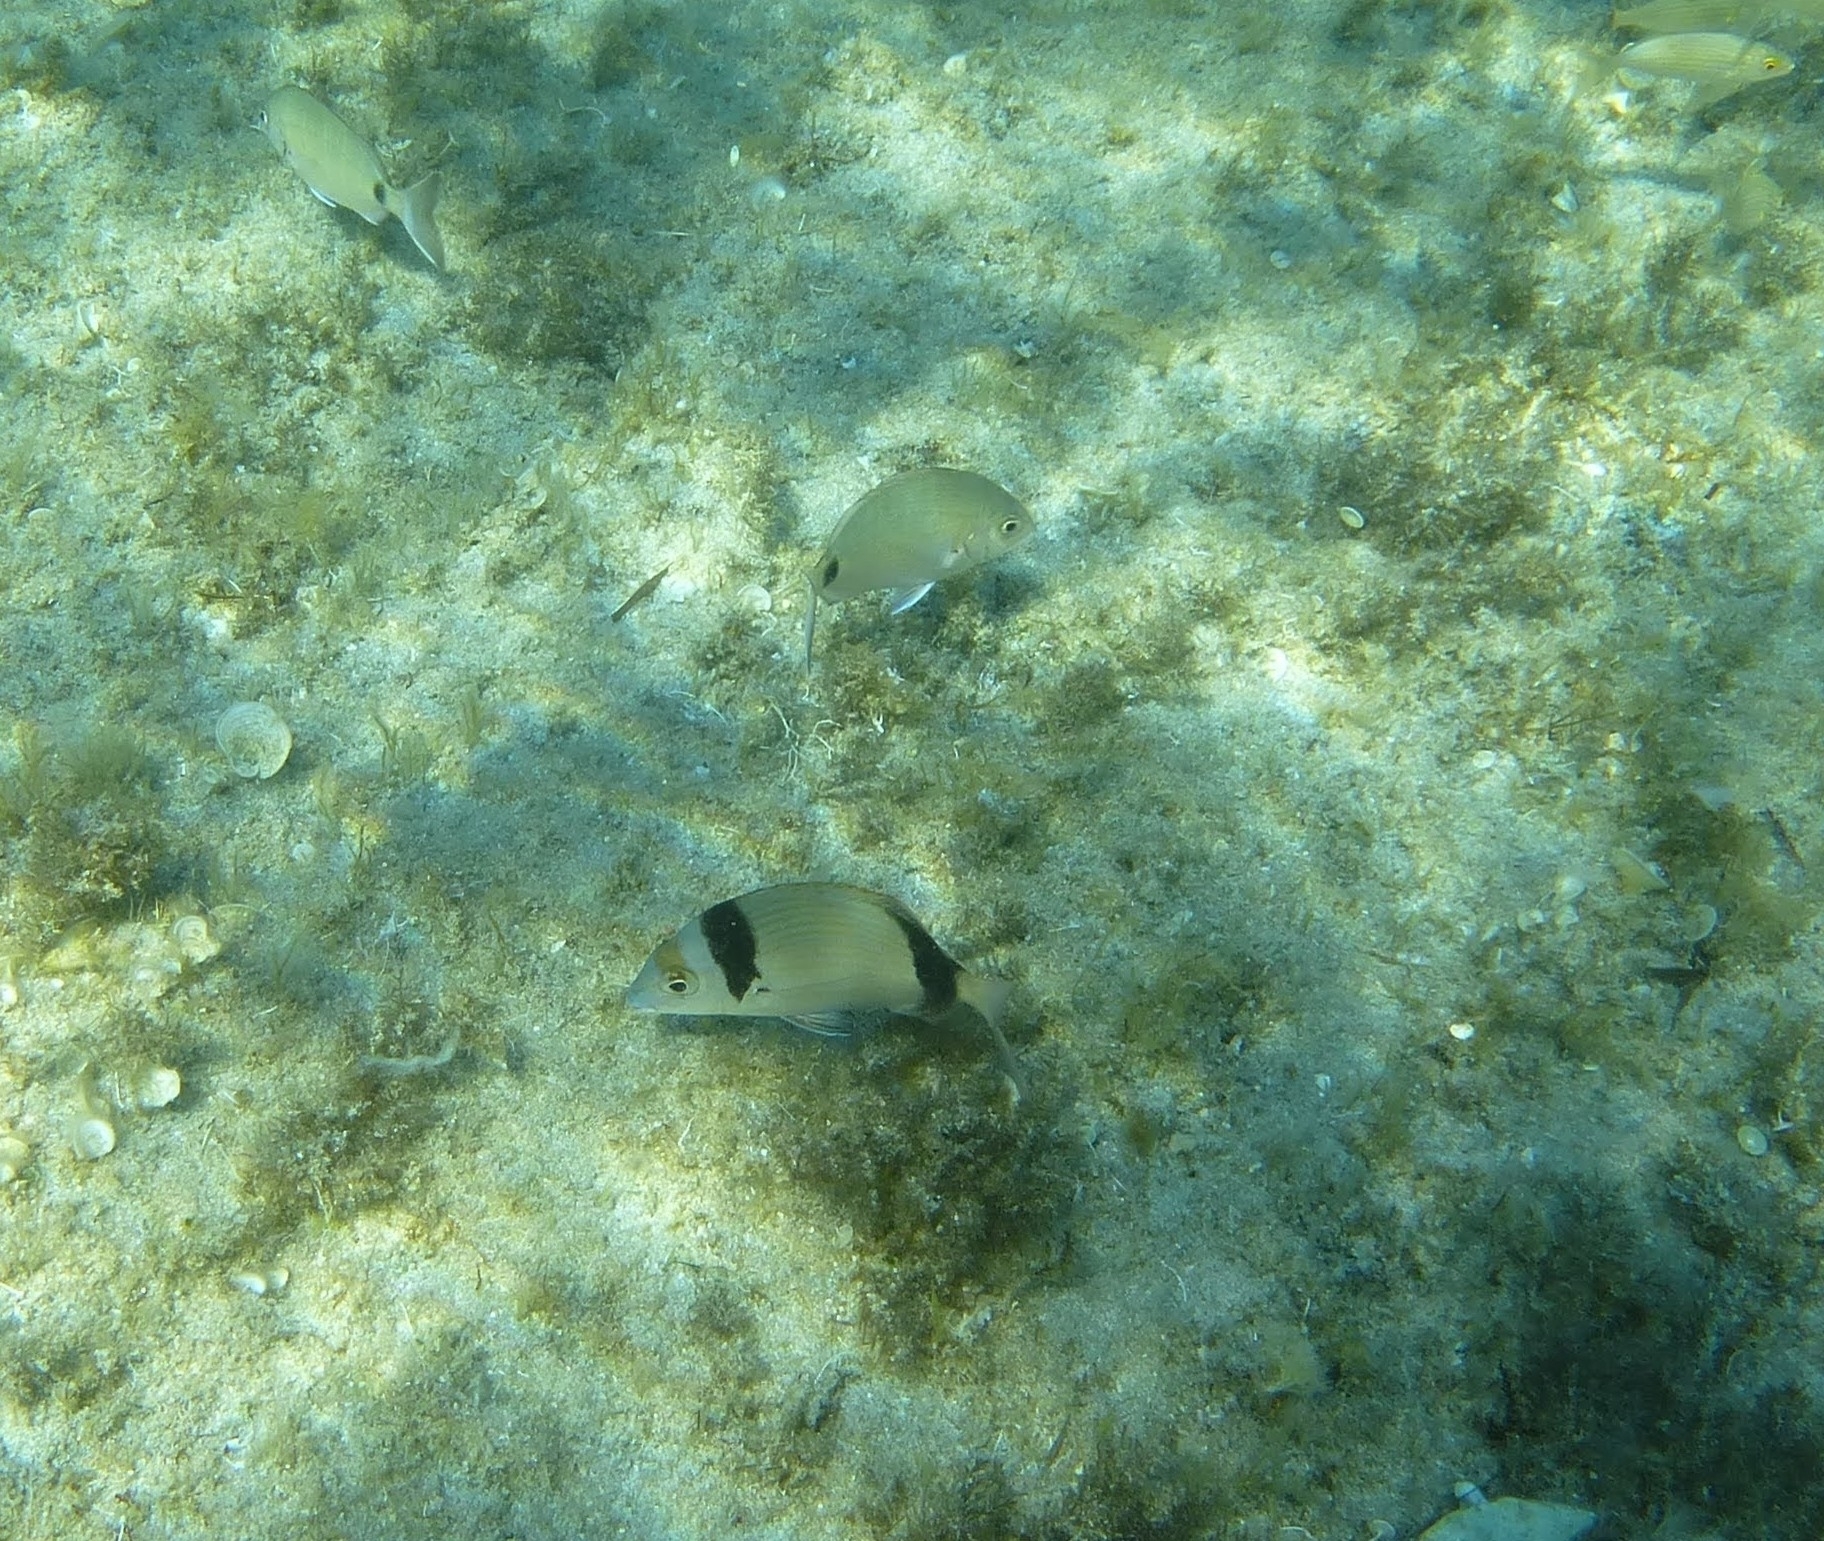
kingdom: Animalia
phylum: Chordata
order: Perciformes
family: Sparidae
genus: Diplodus
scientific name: Diplodus vulgaris
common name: Common two-banded seabream
